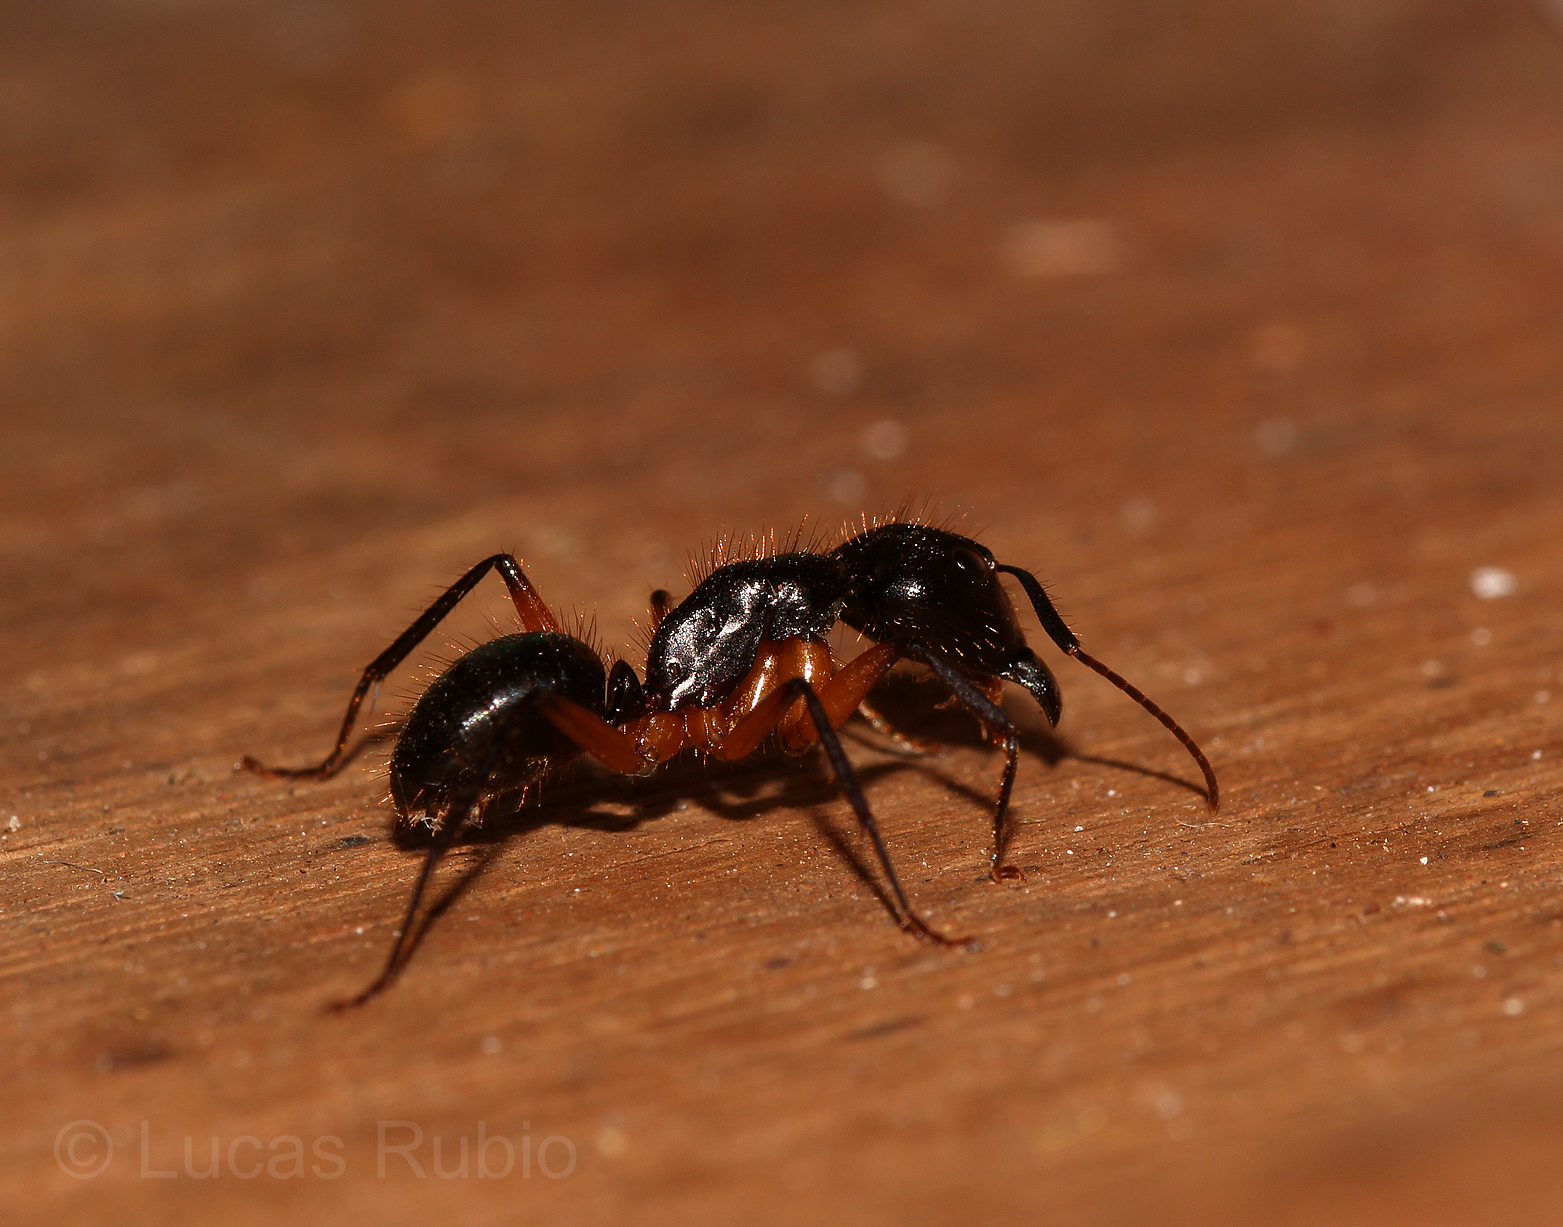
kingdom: Animalia
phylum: Arthropoda
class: Insecta
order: Hymenoptera
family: Formicidae
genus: Camponotus
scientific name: Camponotus renggeri
